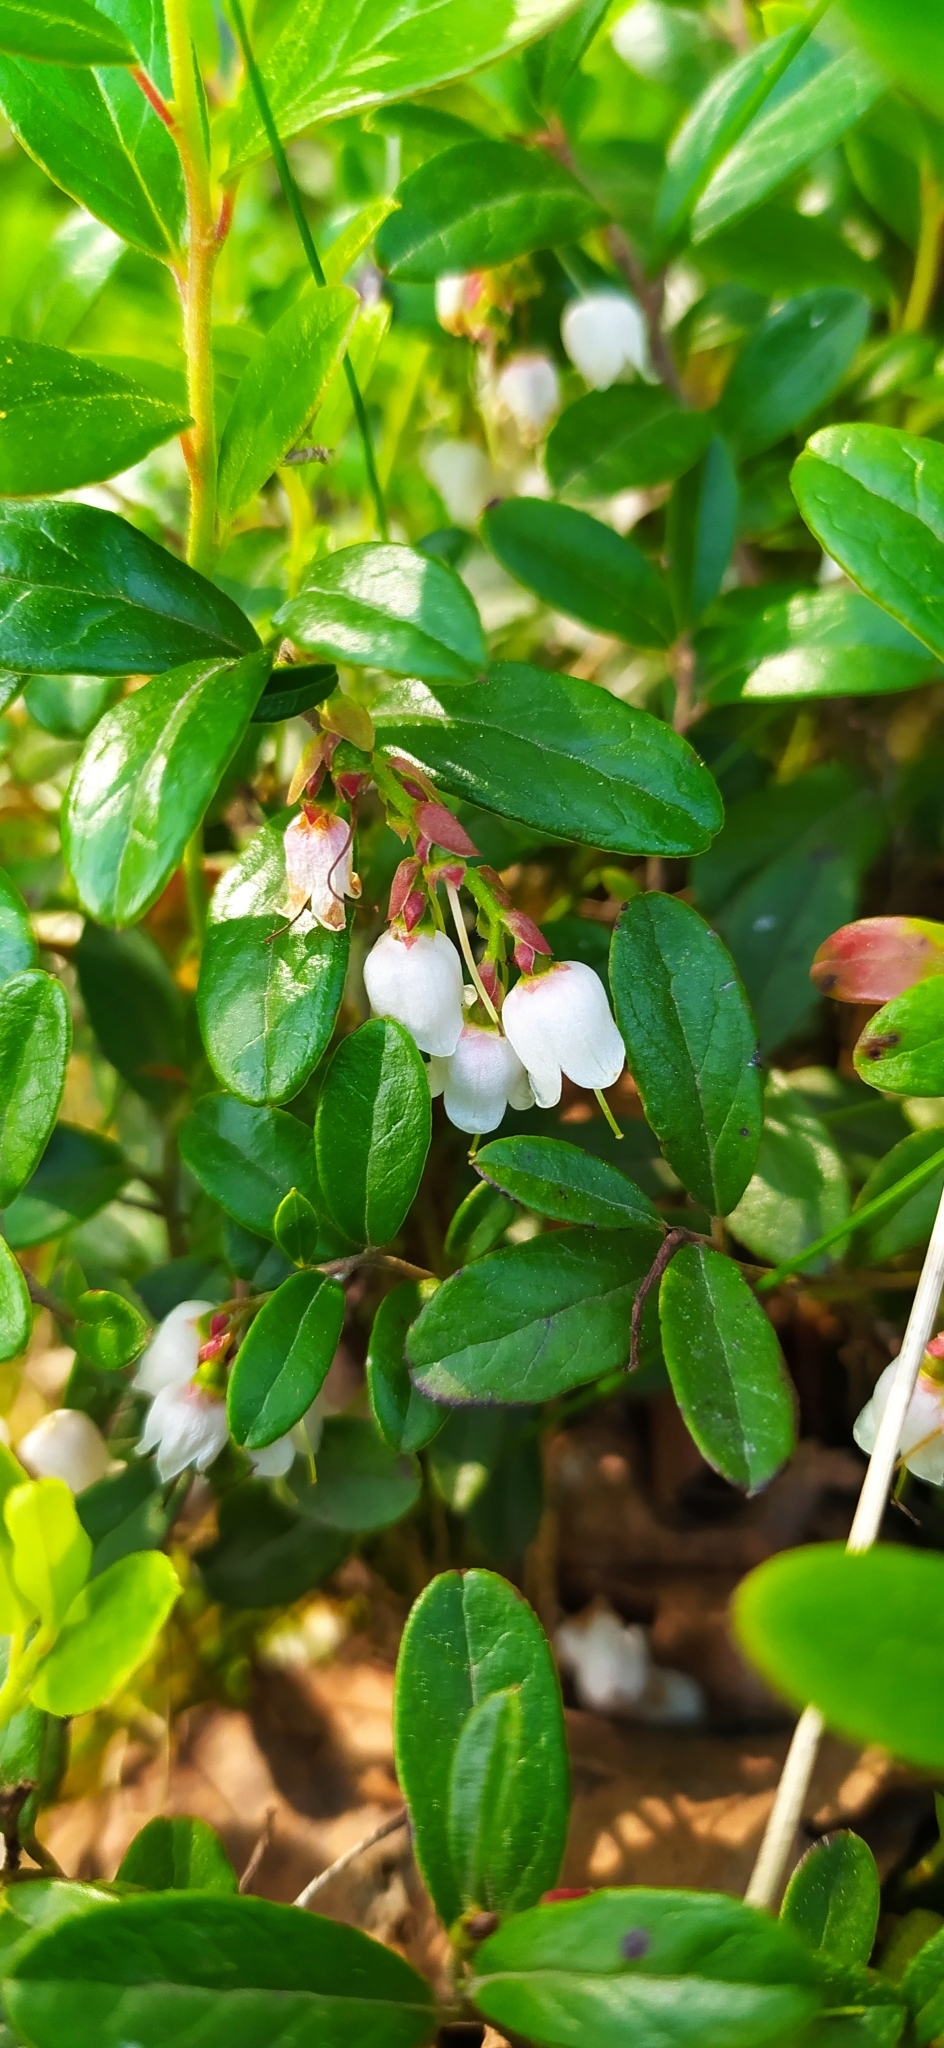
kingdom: Plantae
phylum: Tracheophyta
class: Magnoliopsida
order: Ericales
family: Ericaceae
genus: Vaccinium
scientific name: Vaccinium vitis-idaea
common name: Cowberry
